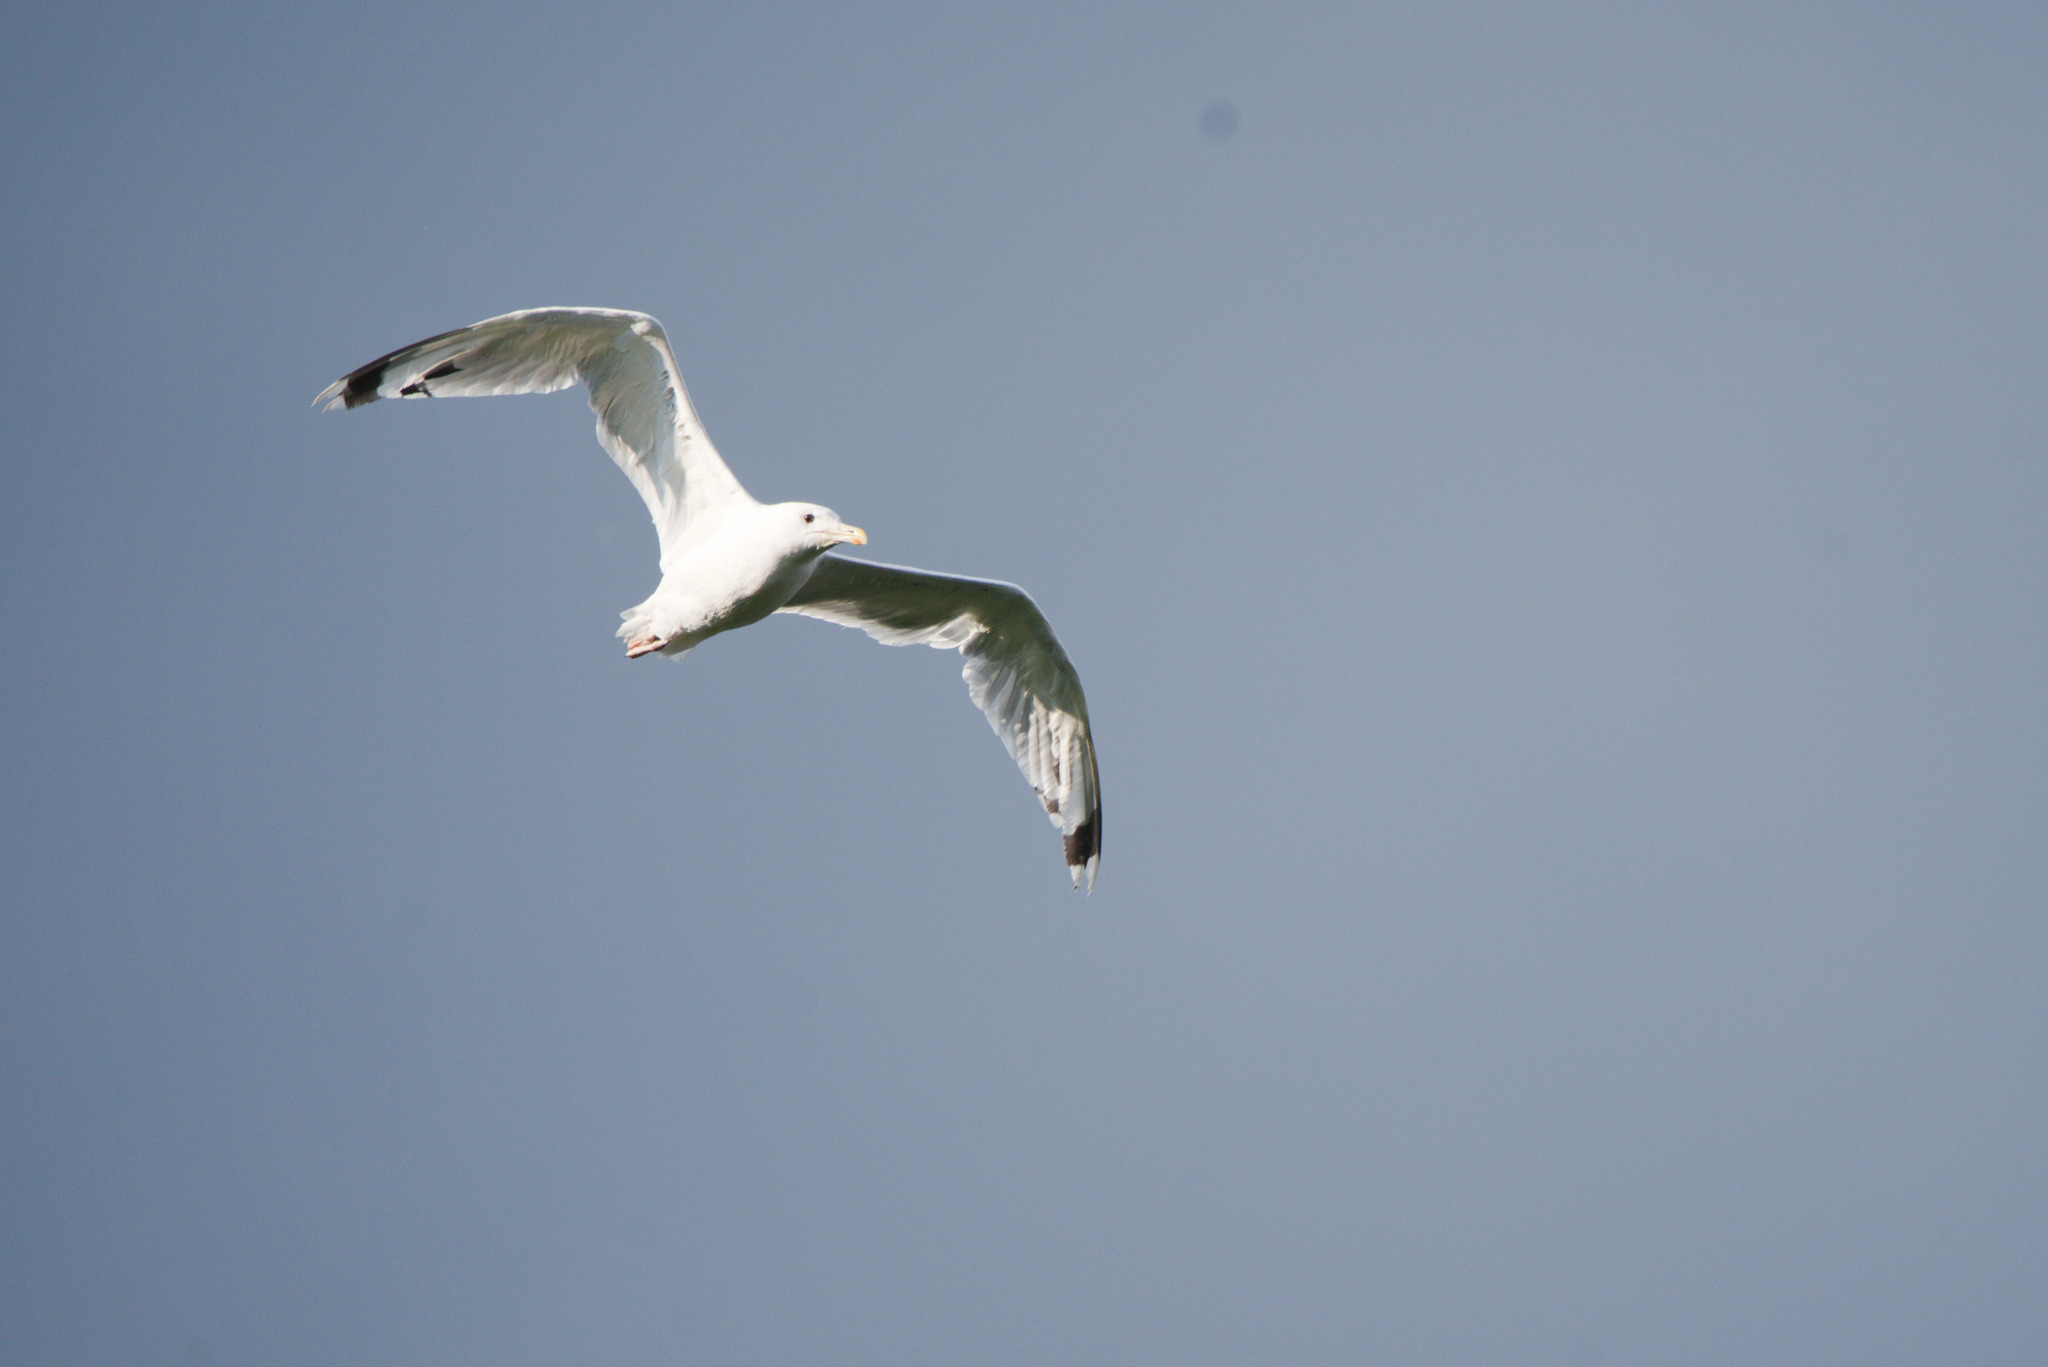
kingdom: Animalia
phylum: Chordata
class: Aves
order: Charadriiformes
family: Laridae
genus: Larus
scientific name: Larus cachinnans
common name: Caspian gull
